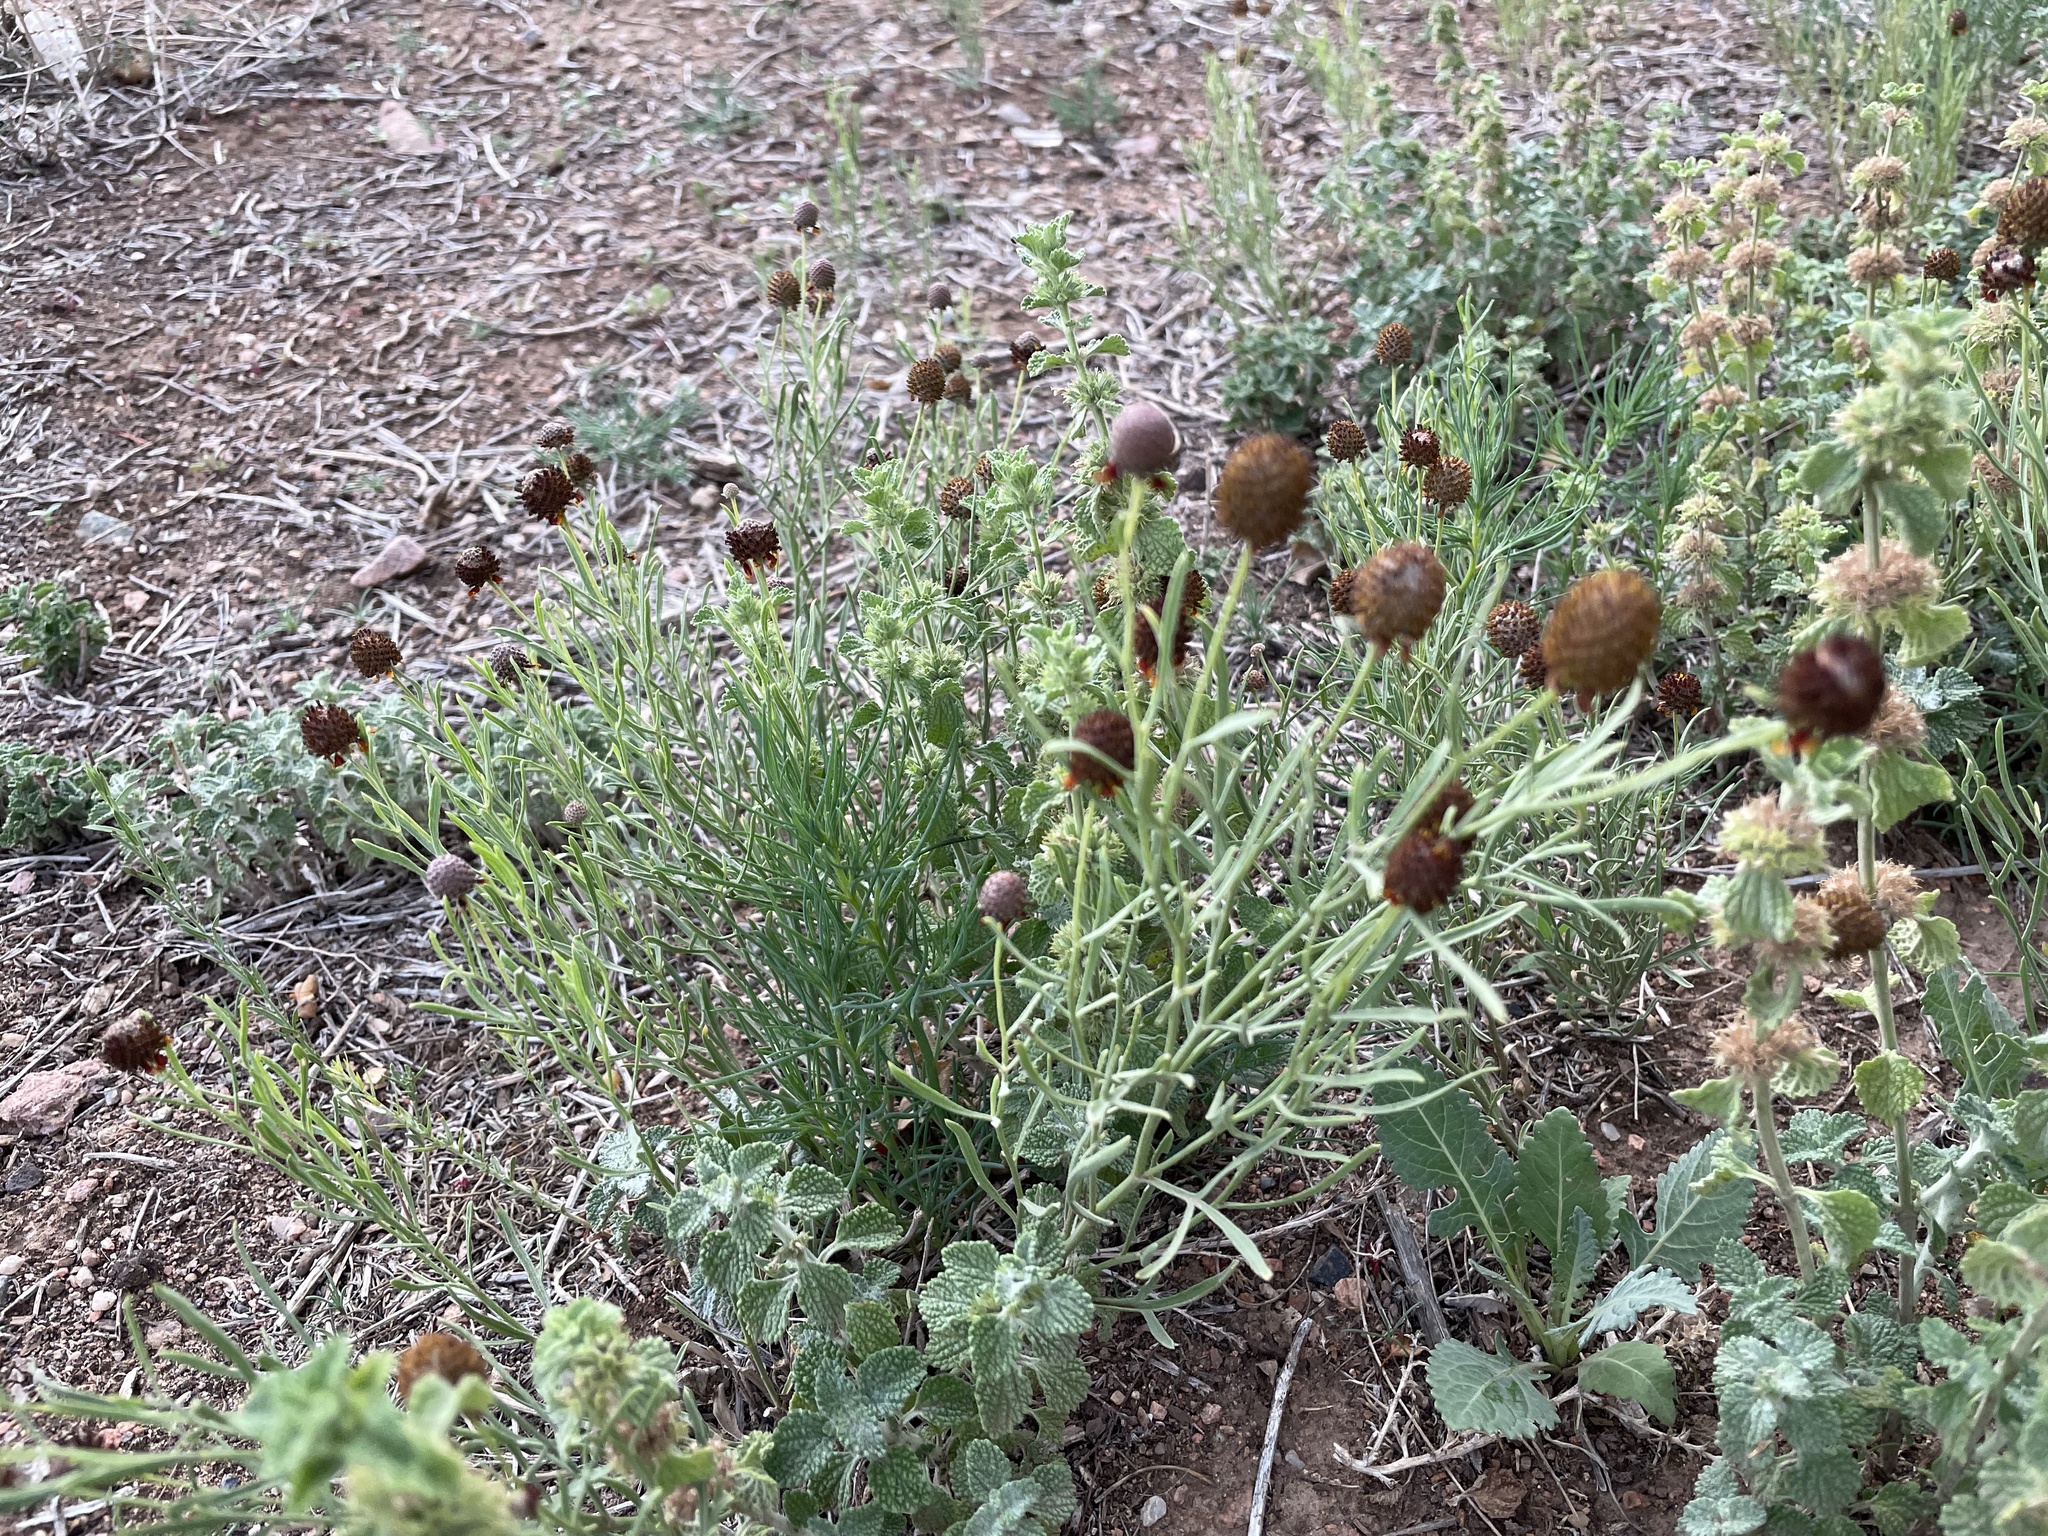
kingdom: Plantae
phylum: Tracheophyta
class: Magnoliopsida
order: Asterales
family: Asteraceae
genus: Ratibida
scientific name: Ratibida tagetes
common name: Green mexican-hat
